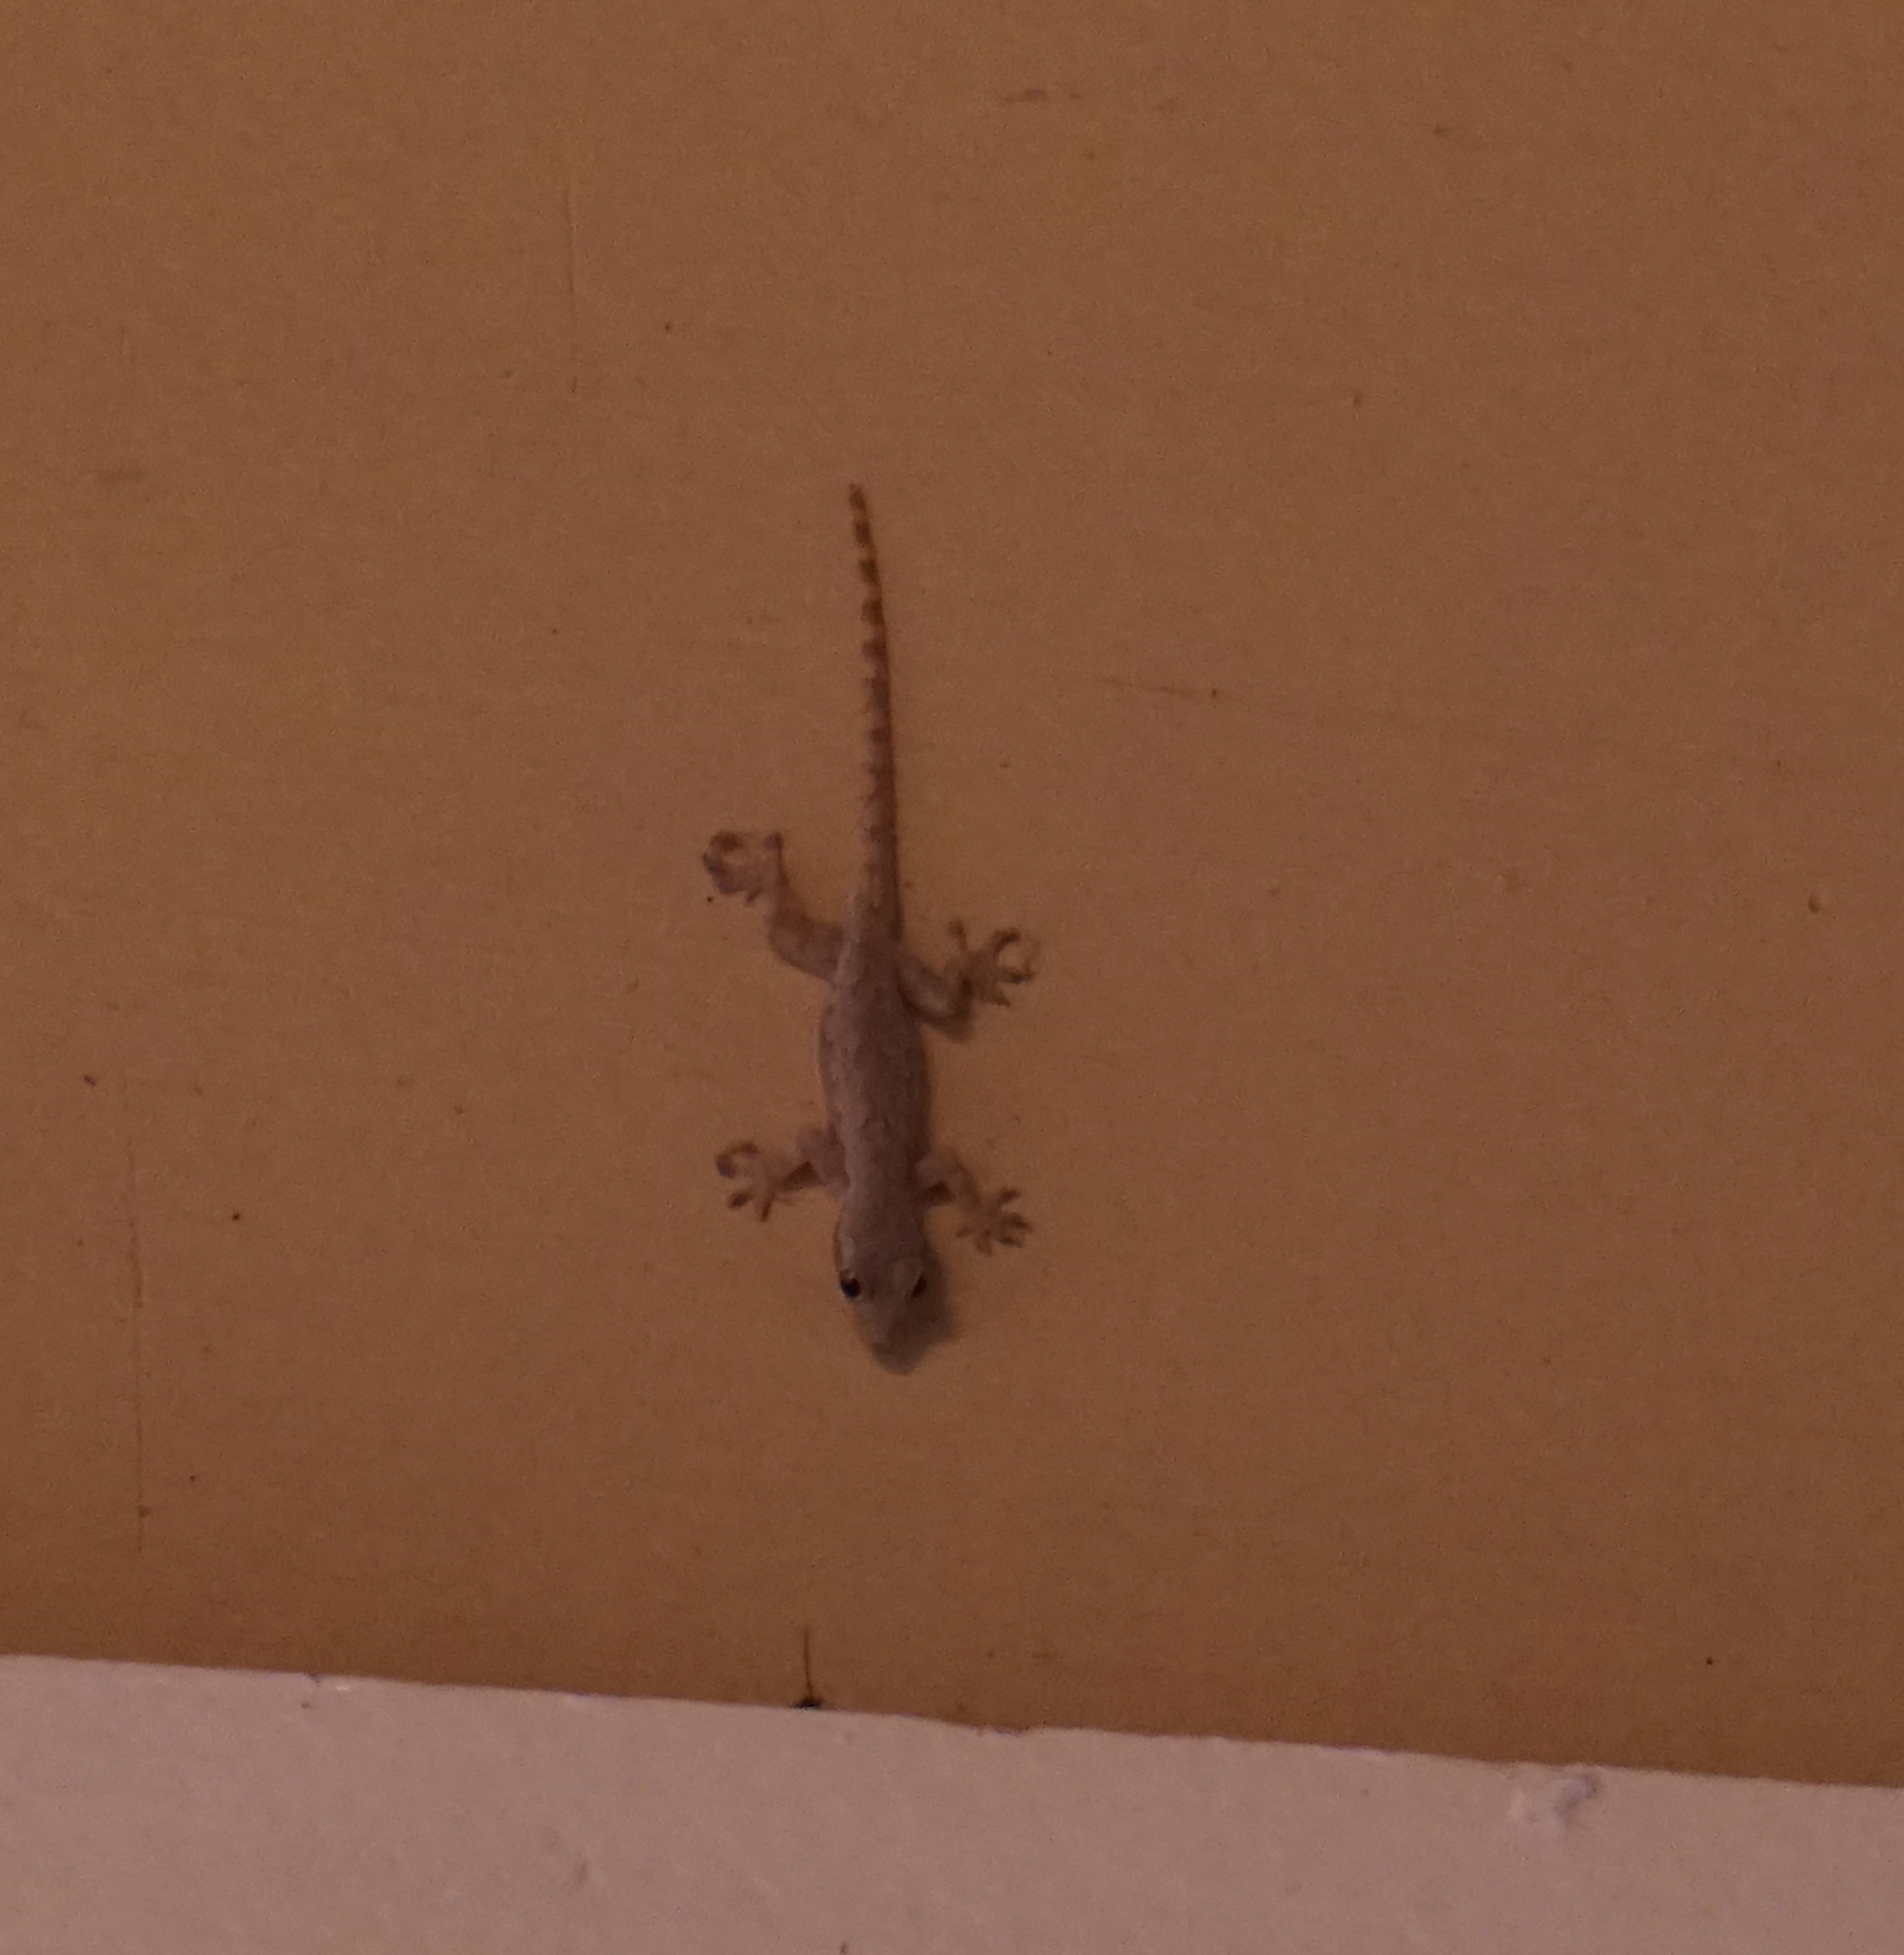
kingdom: Animalia
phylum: Chordata
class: Squamata
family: Gekkonidae
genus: Hemidactylus
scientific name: Hemidactylus platyurus
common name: Flat-tailed house gecko
